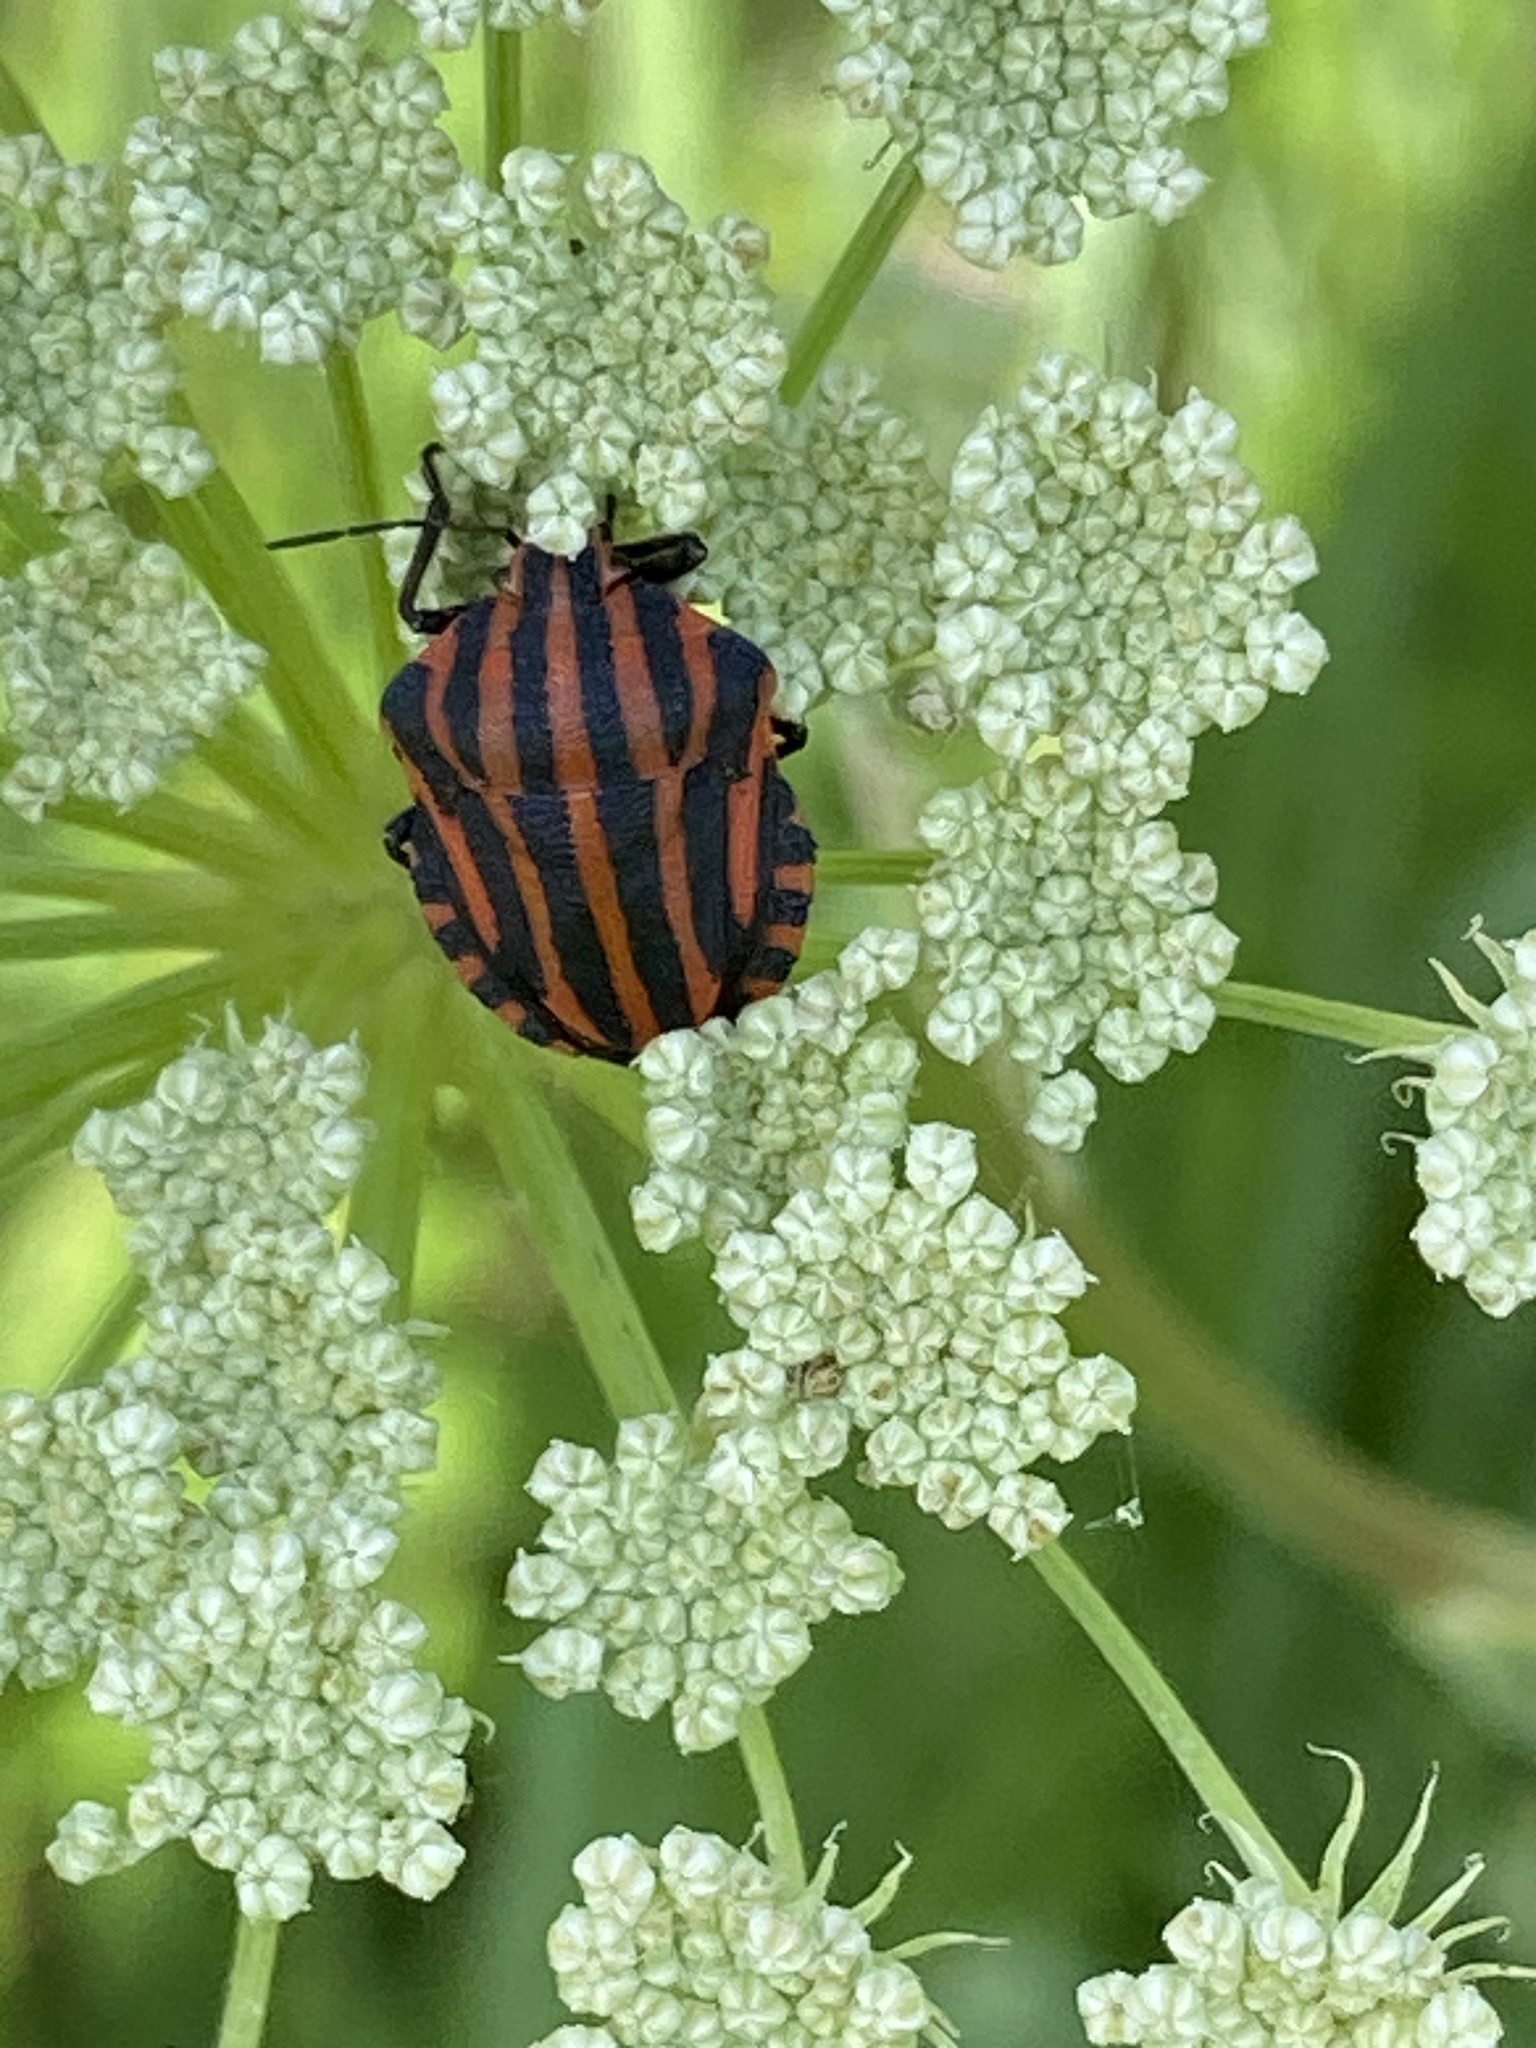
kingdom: Animalia
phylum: Arthropoda
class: Insecta
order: Hemiptera
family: Pentatomidae
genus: Graphosoma
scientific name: Graphosoma italicum
